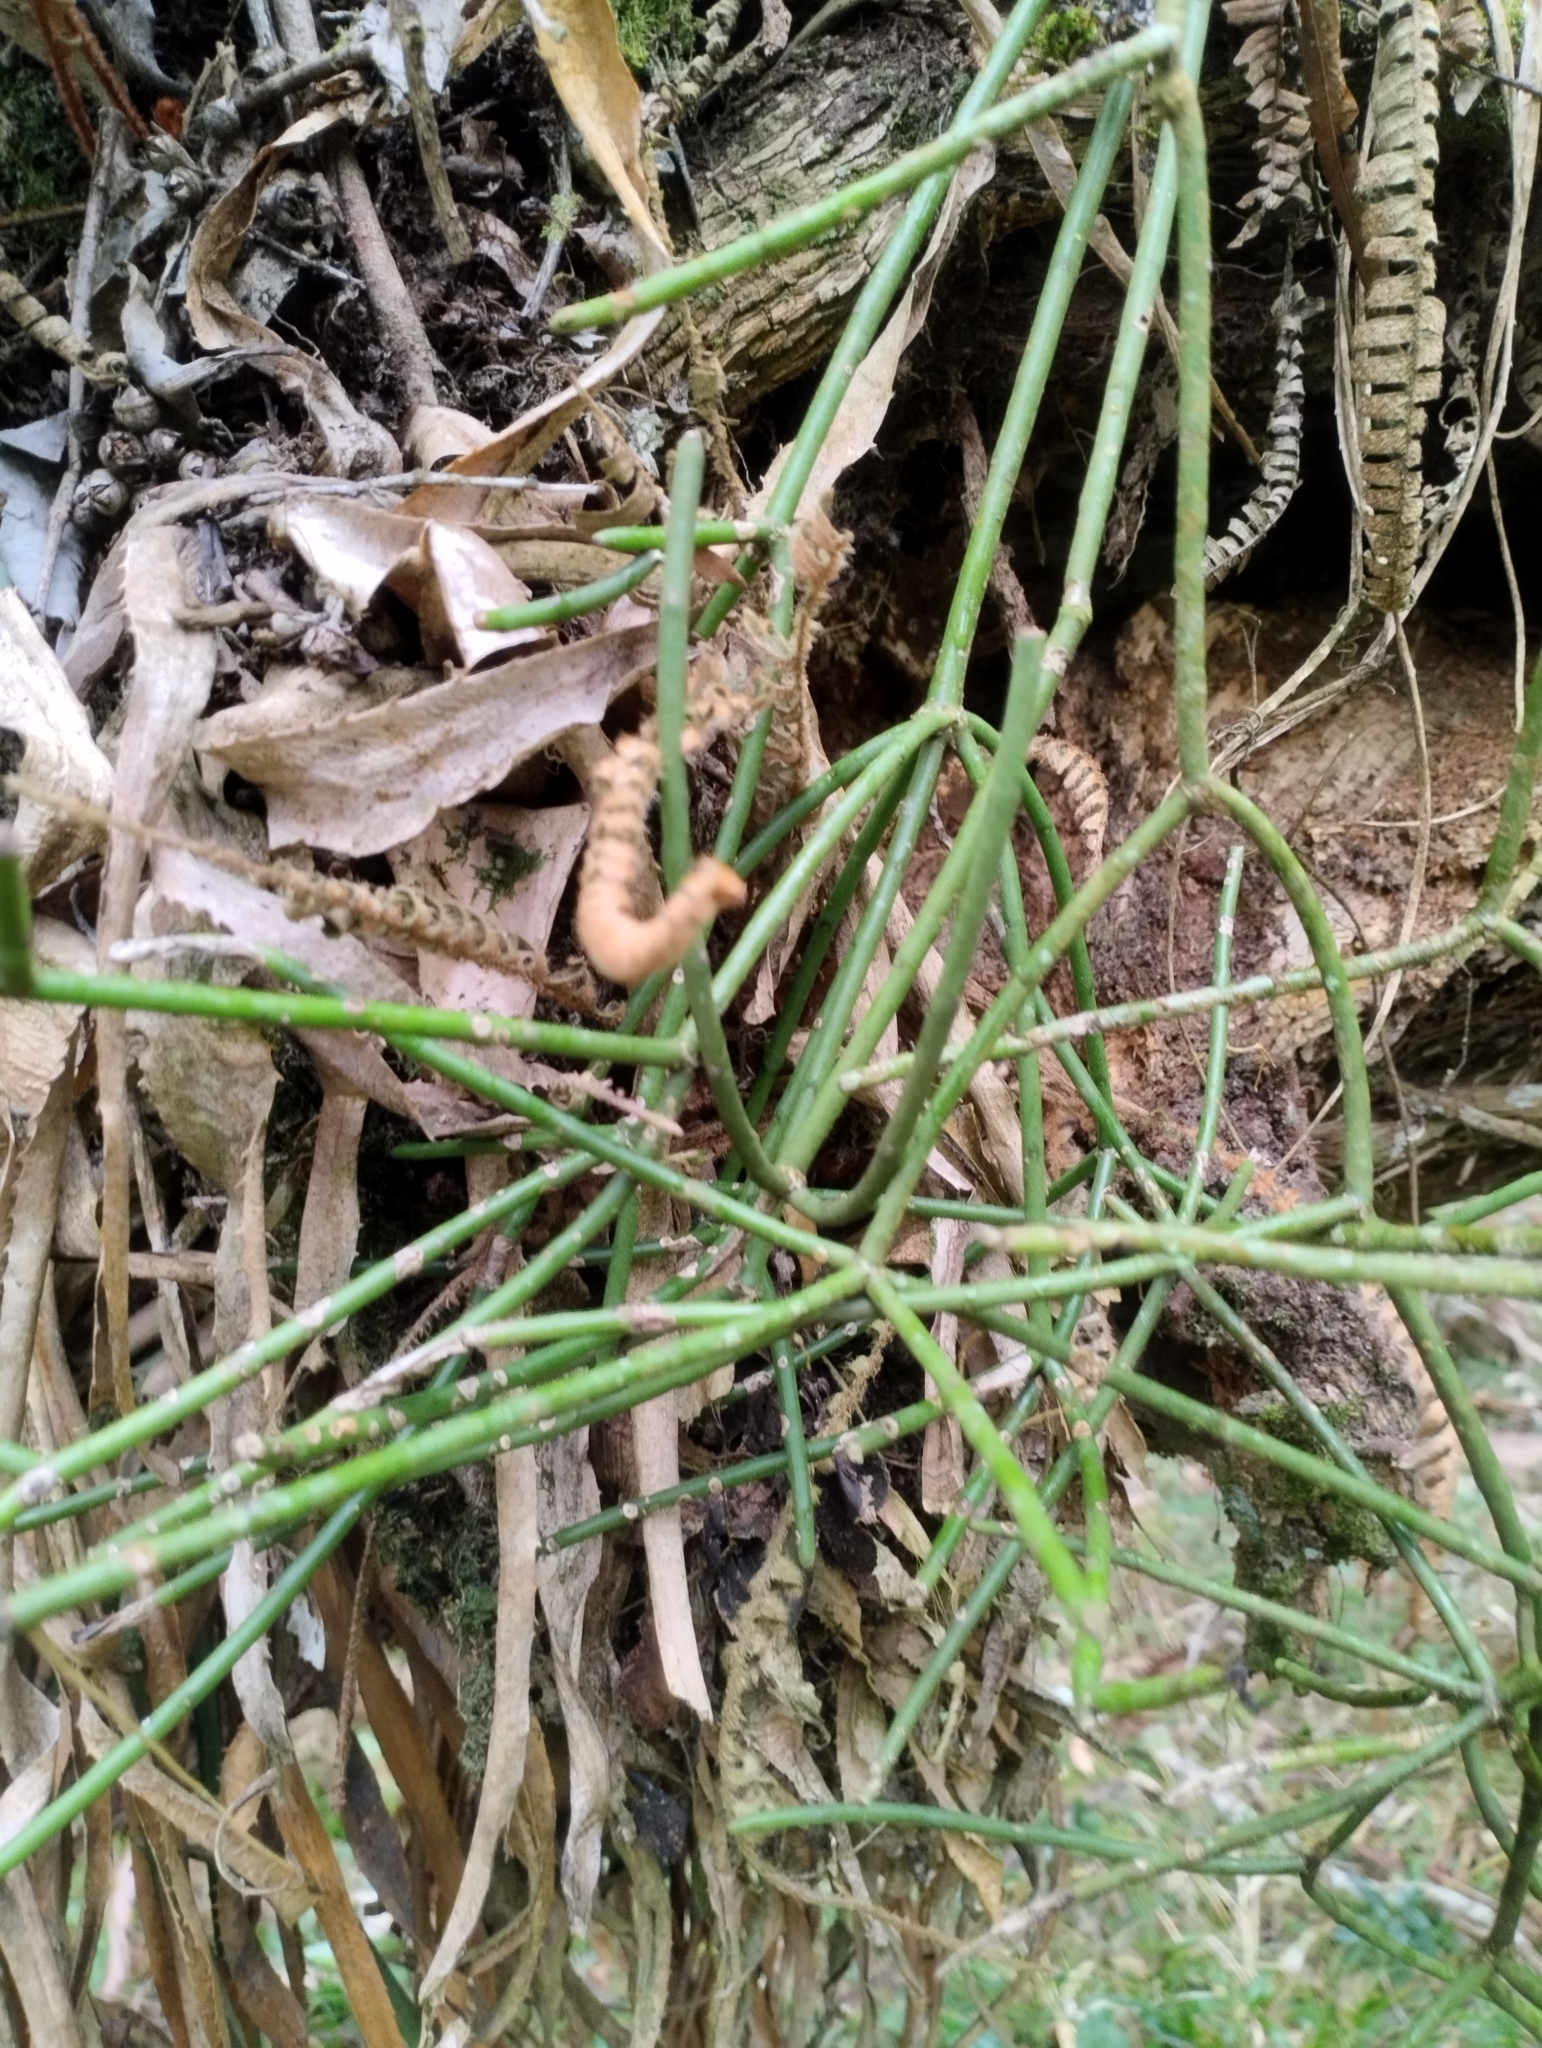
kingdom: Plantae
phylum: Tracheophyta
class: Magnoliopsida
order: Caryophyllales
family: Cactaceae
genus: Rhipsalis
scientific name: Rhipsalis floccosa
